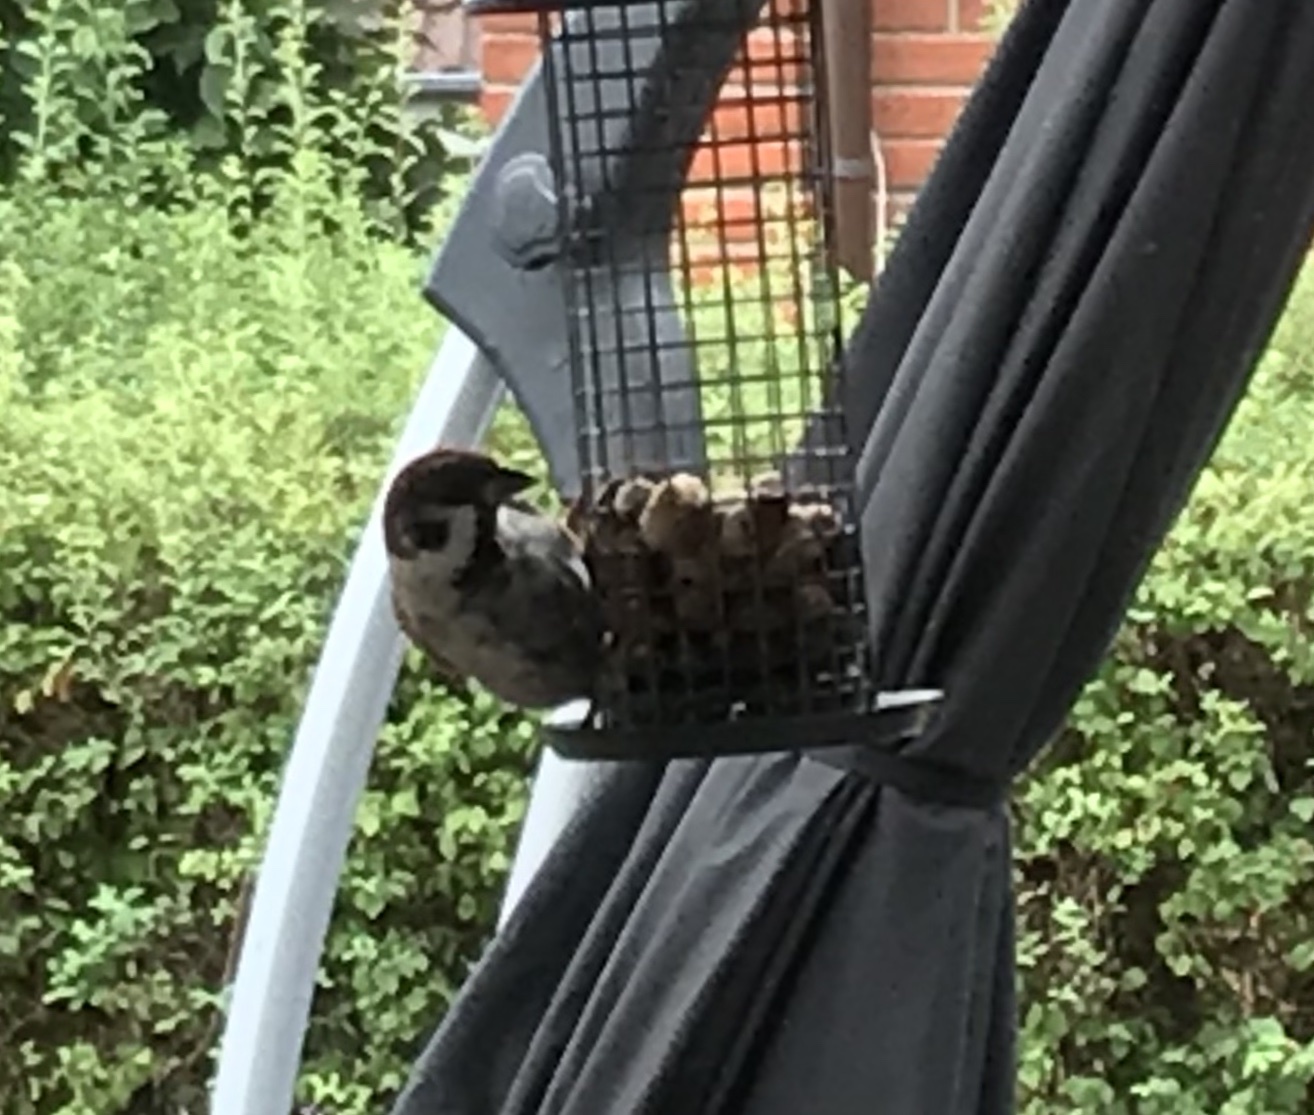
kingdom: Animalia
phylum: Chordata
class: Aves
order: Passeriformes
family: Passeridae
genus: Passer
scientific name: Passer montanus
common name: Eurasian tree sparrow
